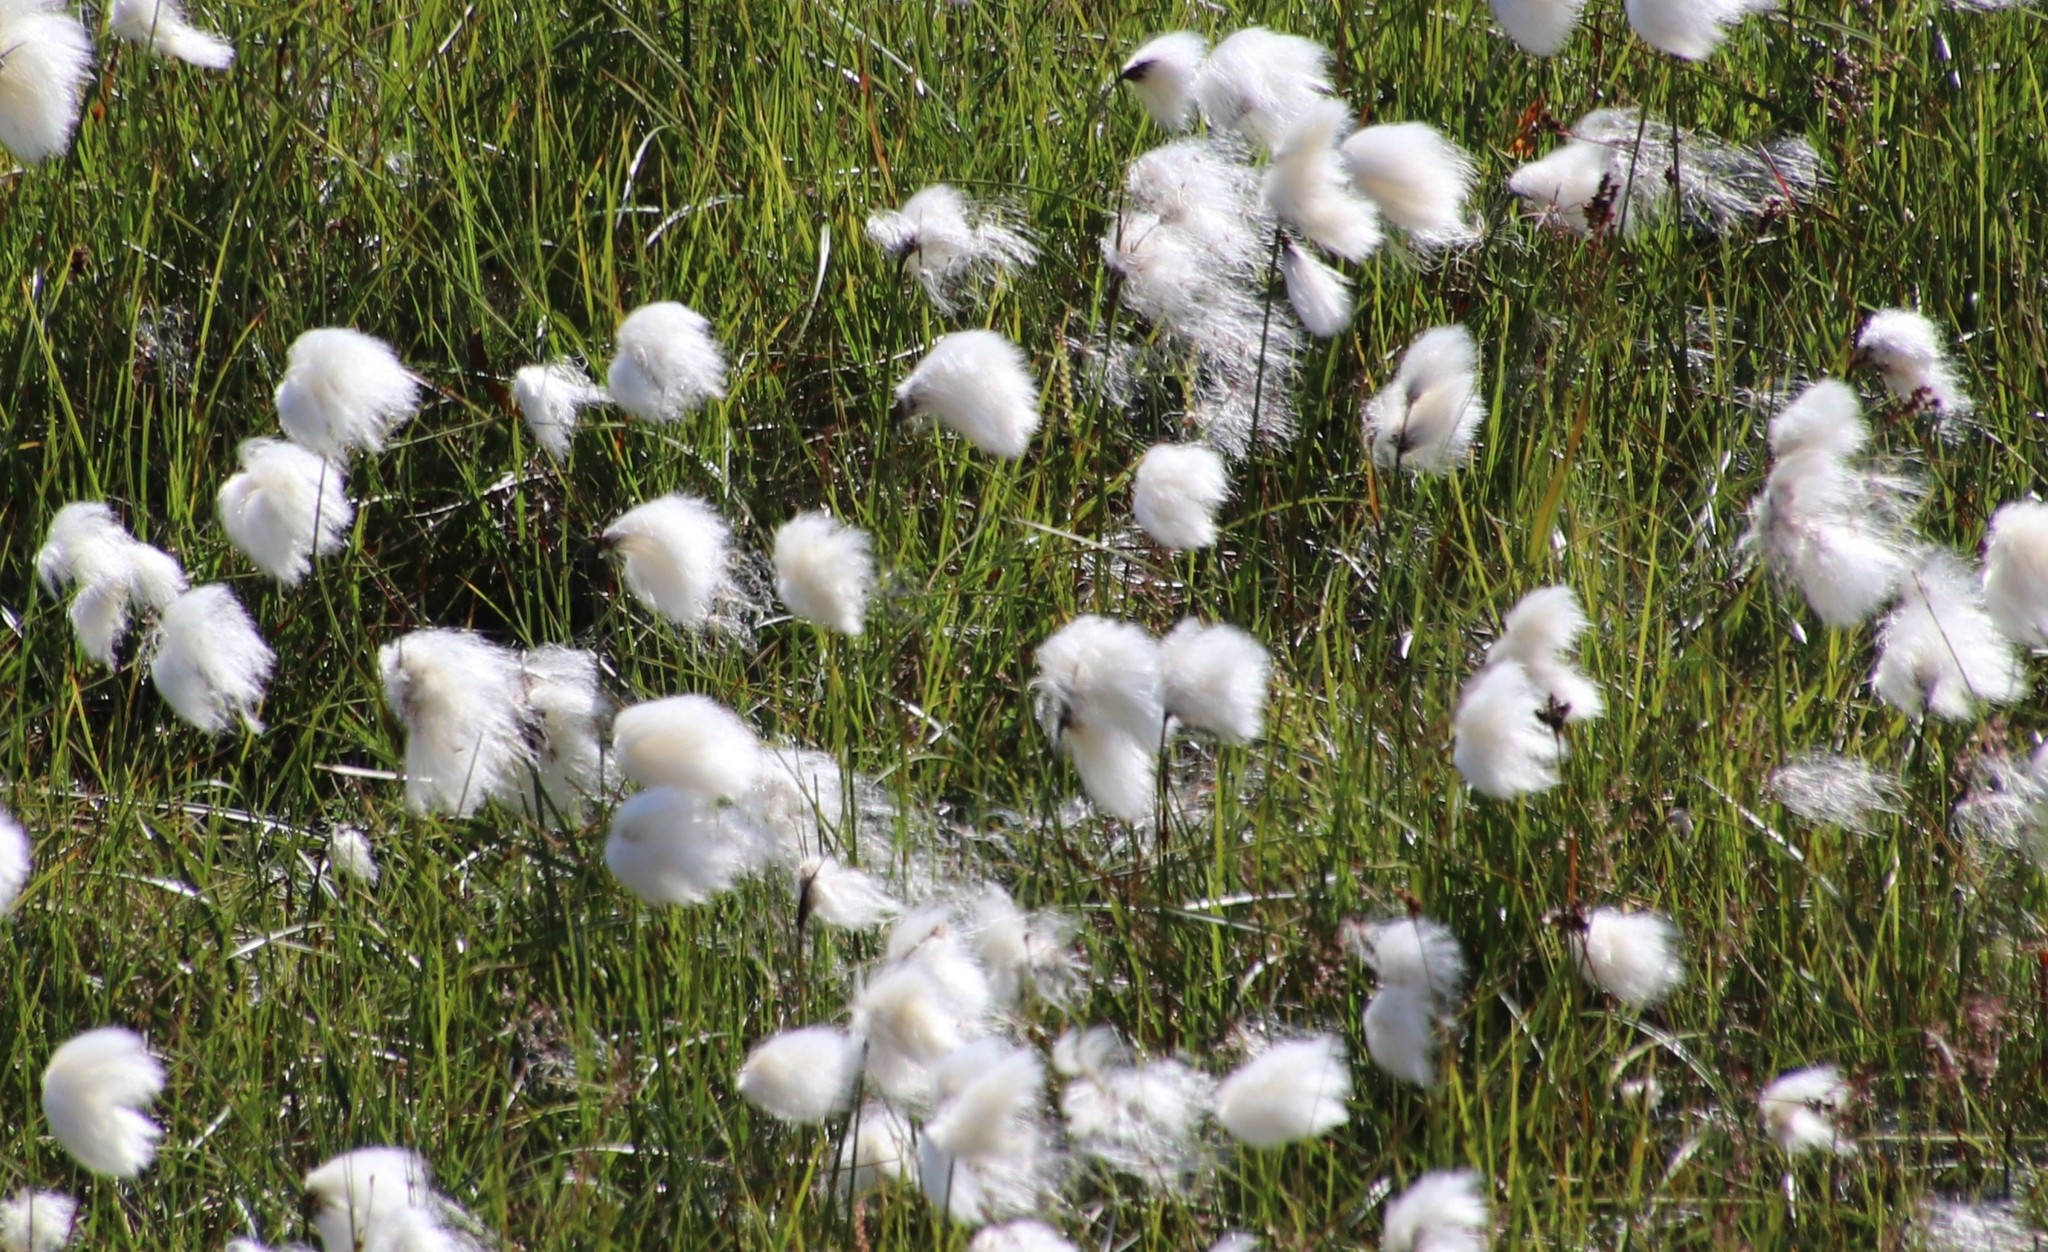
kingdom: Plantae
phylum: Tracheophyta
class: Liliopsida
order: Poales
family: Cyperaceae
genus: Eriophorum
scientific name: Eriophorum scheuchzeri
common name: Scheuchzer's cottongrass
